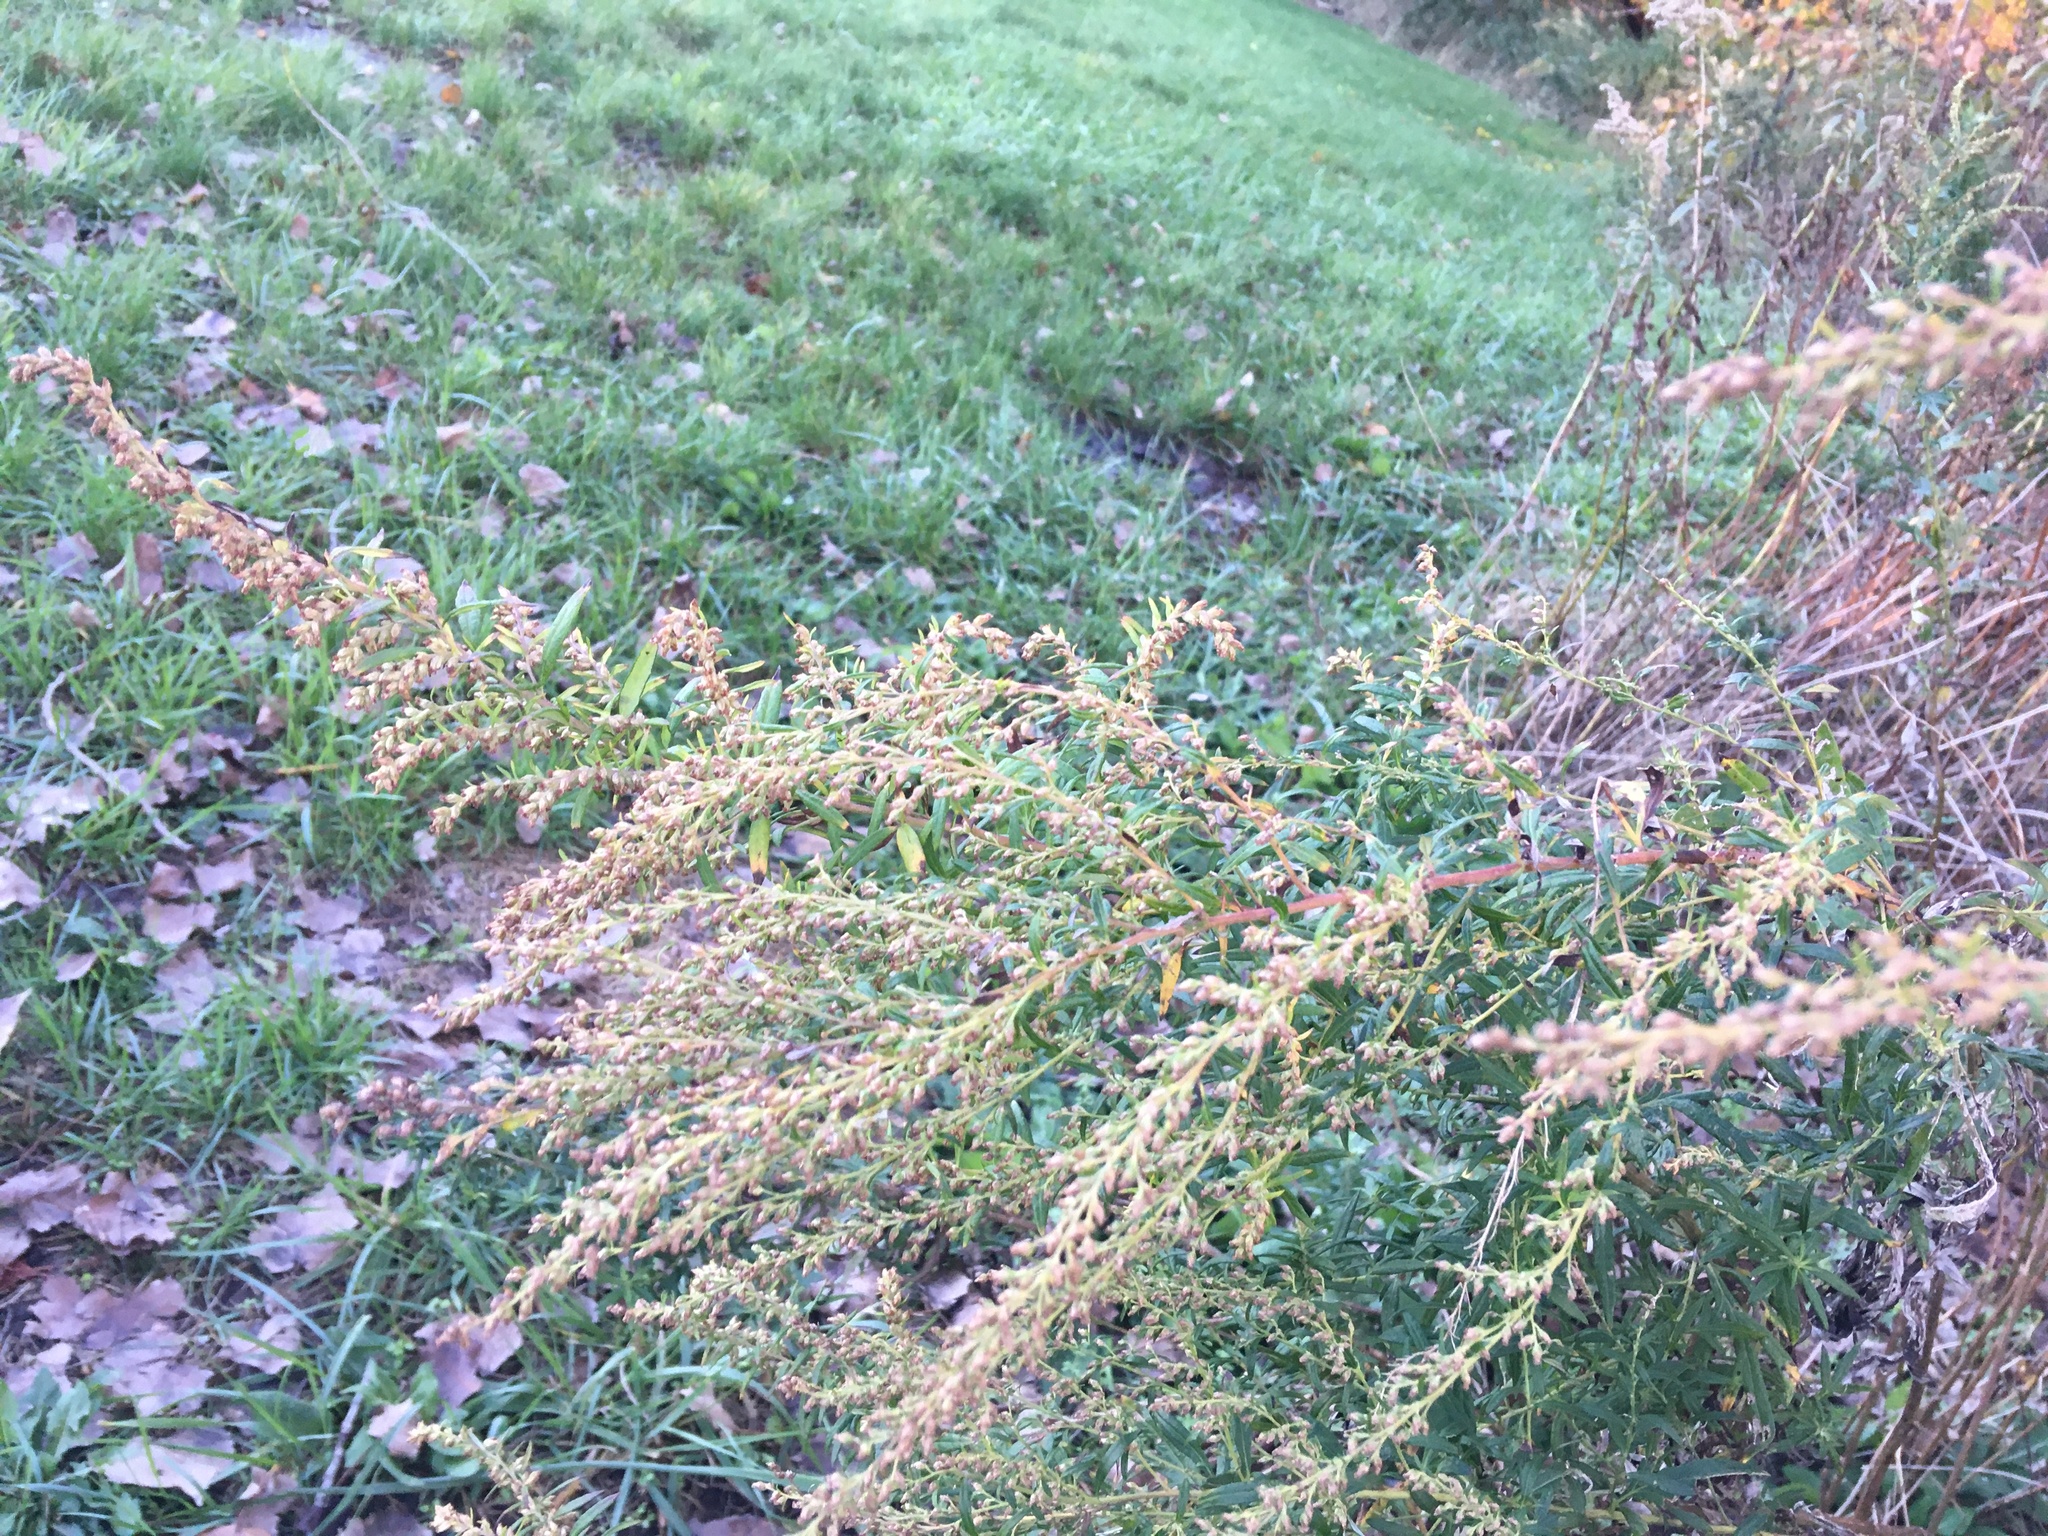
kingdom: Plantae
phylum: Tracheophyta
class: Magnoliopsida
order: Asterales
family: Asteraceae
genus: Artemisia
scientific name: Artemisia vulgaris
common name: Mugwort
